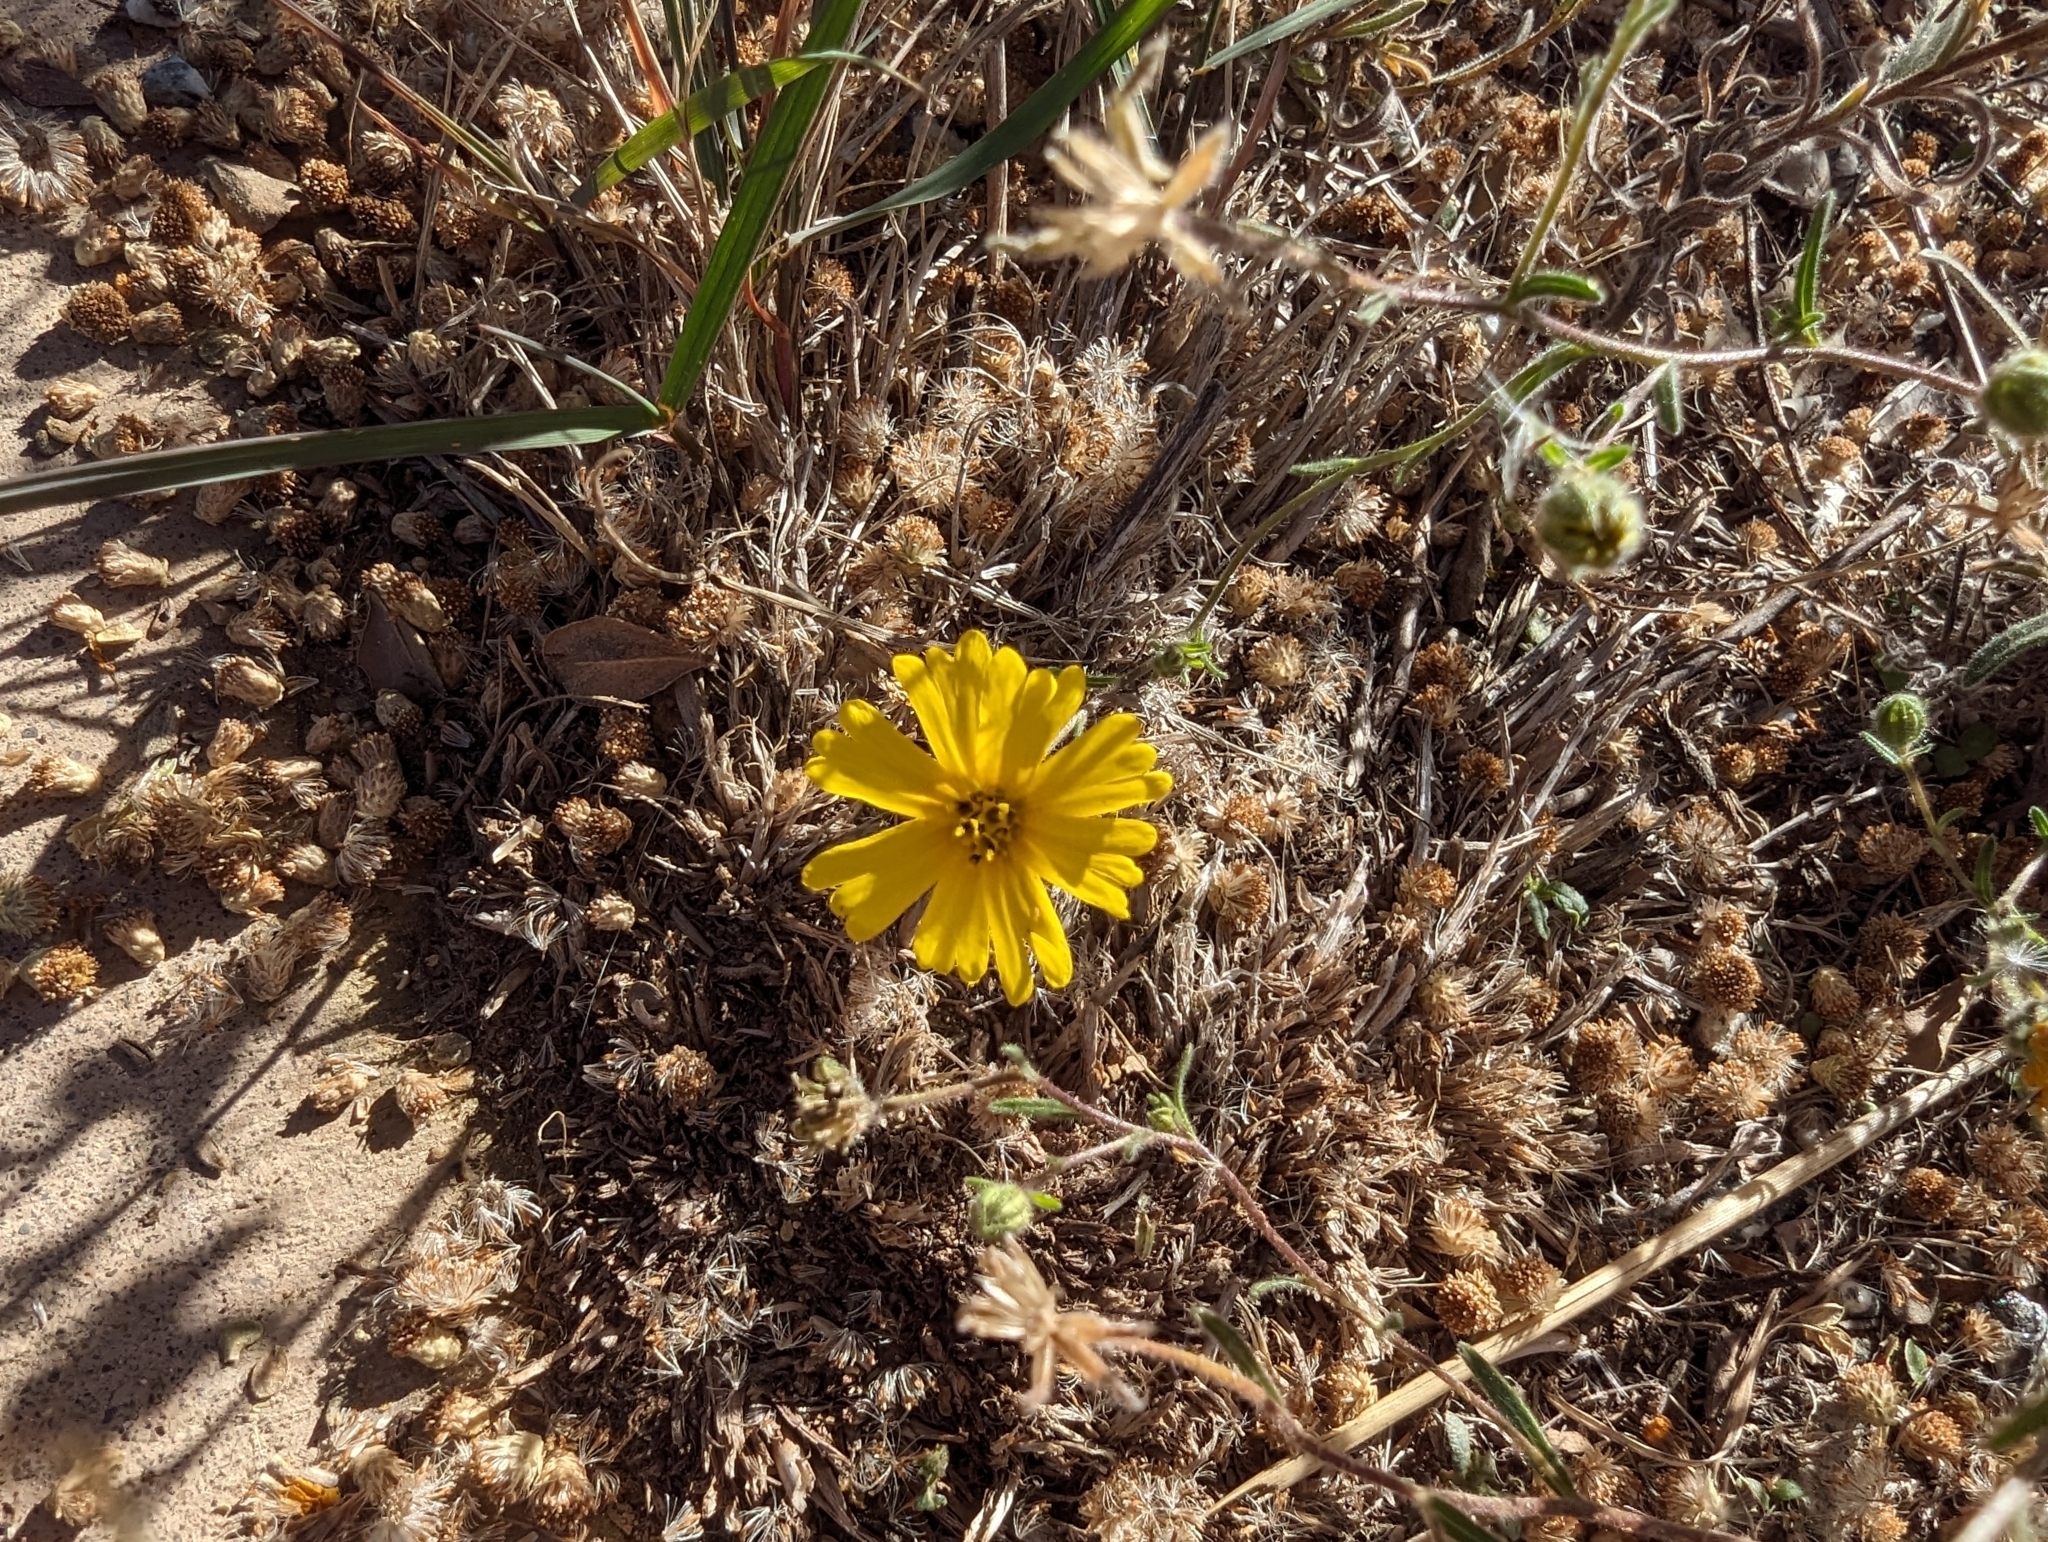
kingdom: Plantae
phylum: Tracheophyta
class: Magnoliopsida
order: Asterales
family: Asteraceae
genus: Madia
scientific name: Madia elegans
